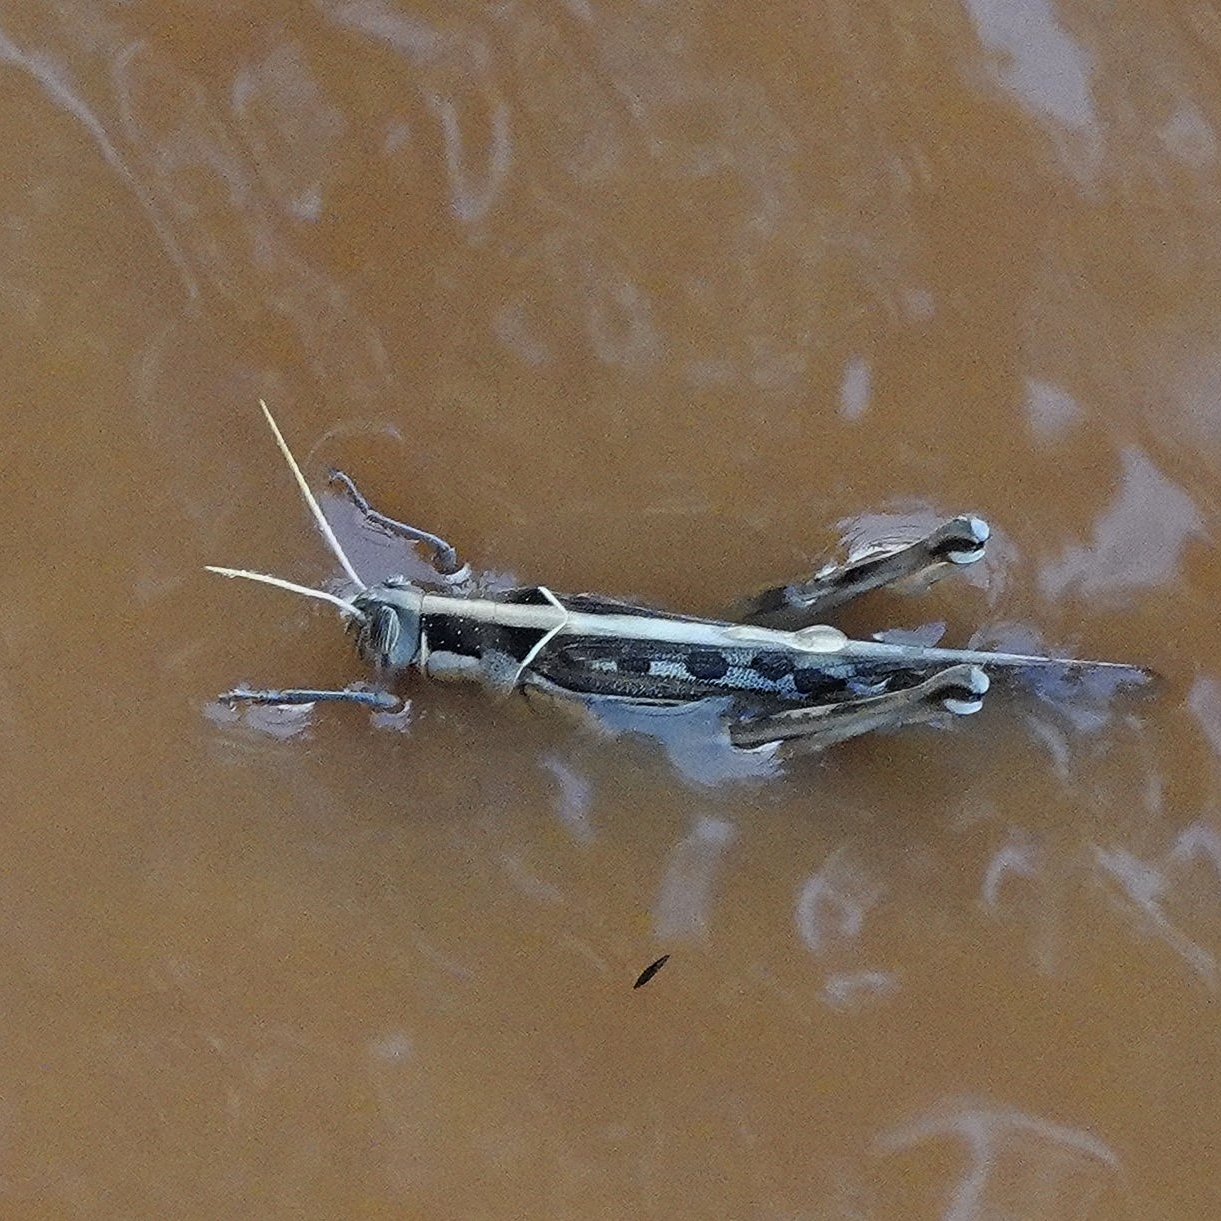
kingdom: Animalia
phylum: Arthropoda
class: Insecta
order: Orthoptera
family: Acrididae
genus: Cyrtacanthacris
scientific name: Cyrtacanthacris tatarica
